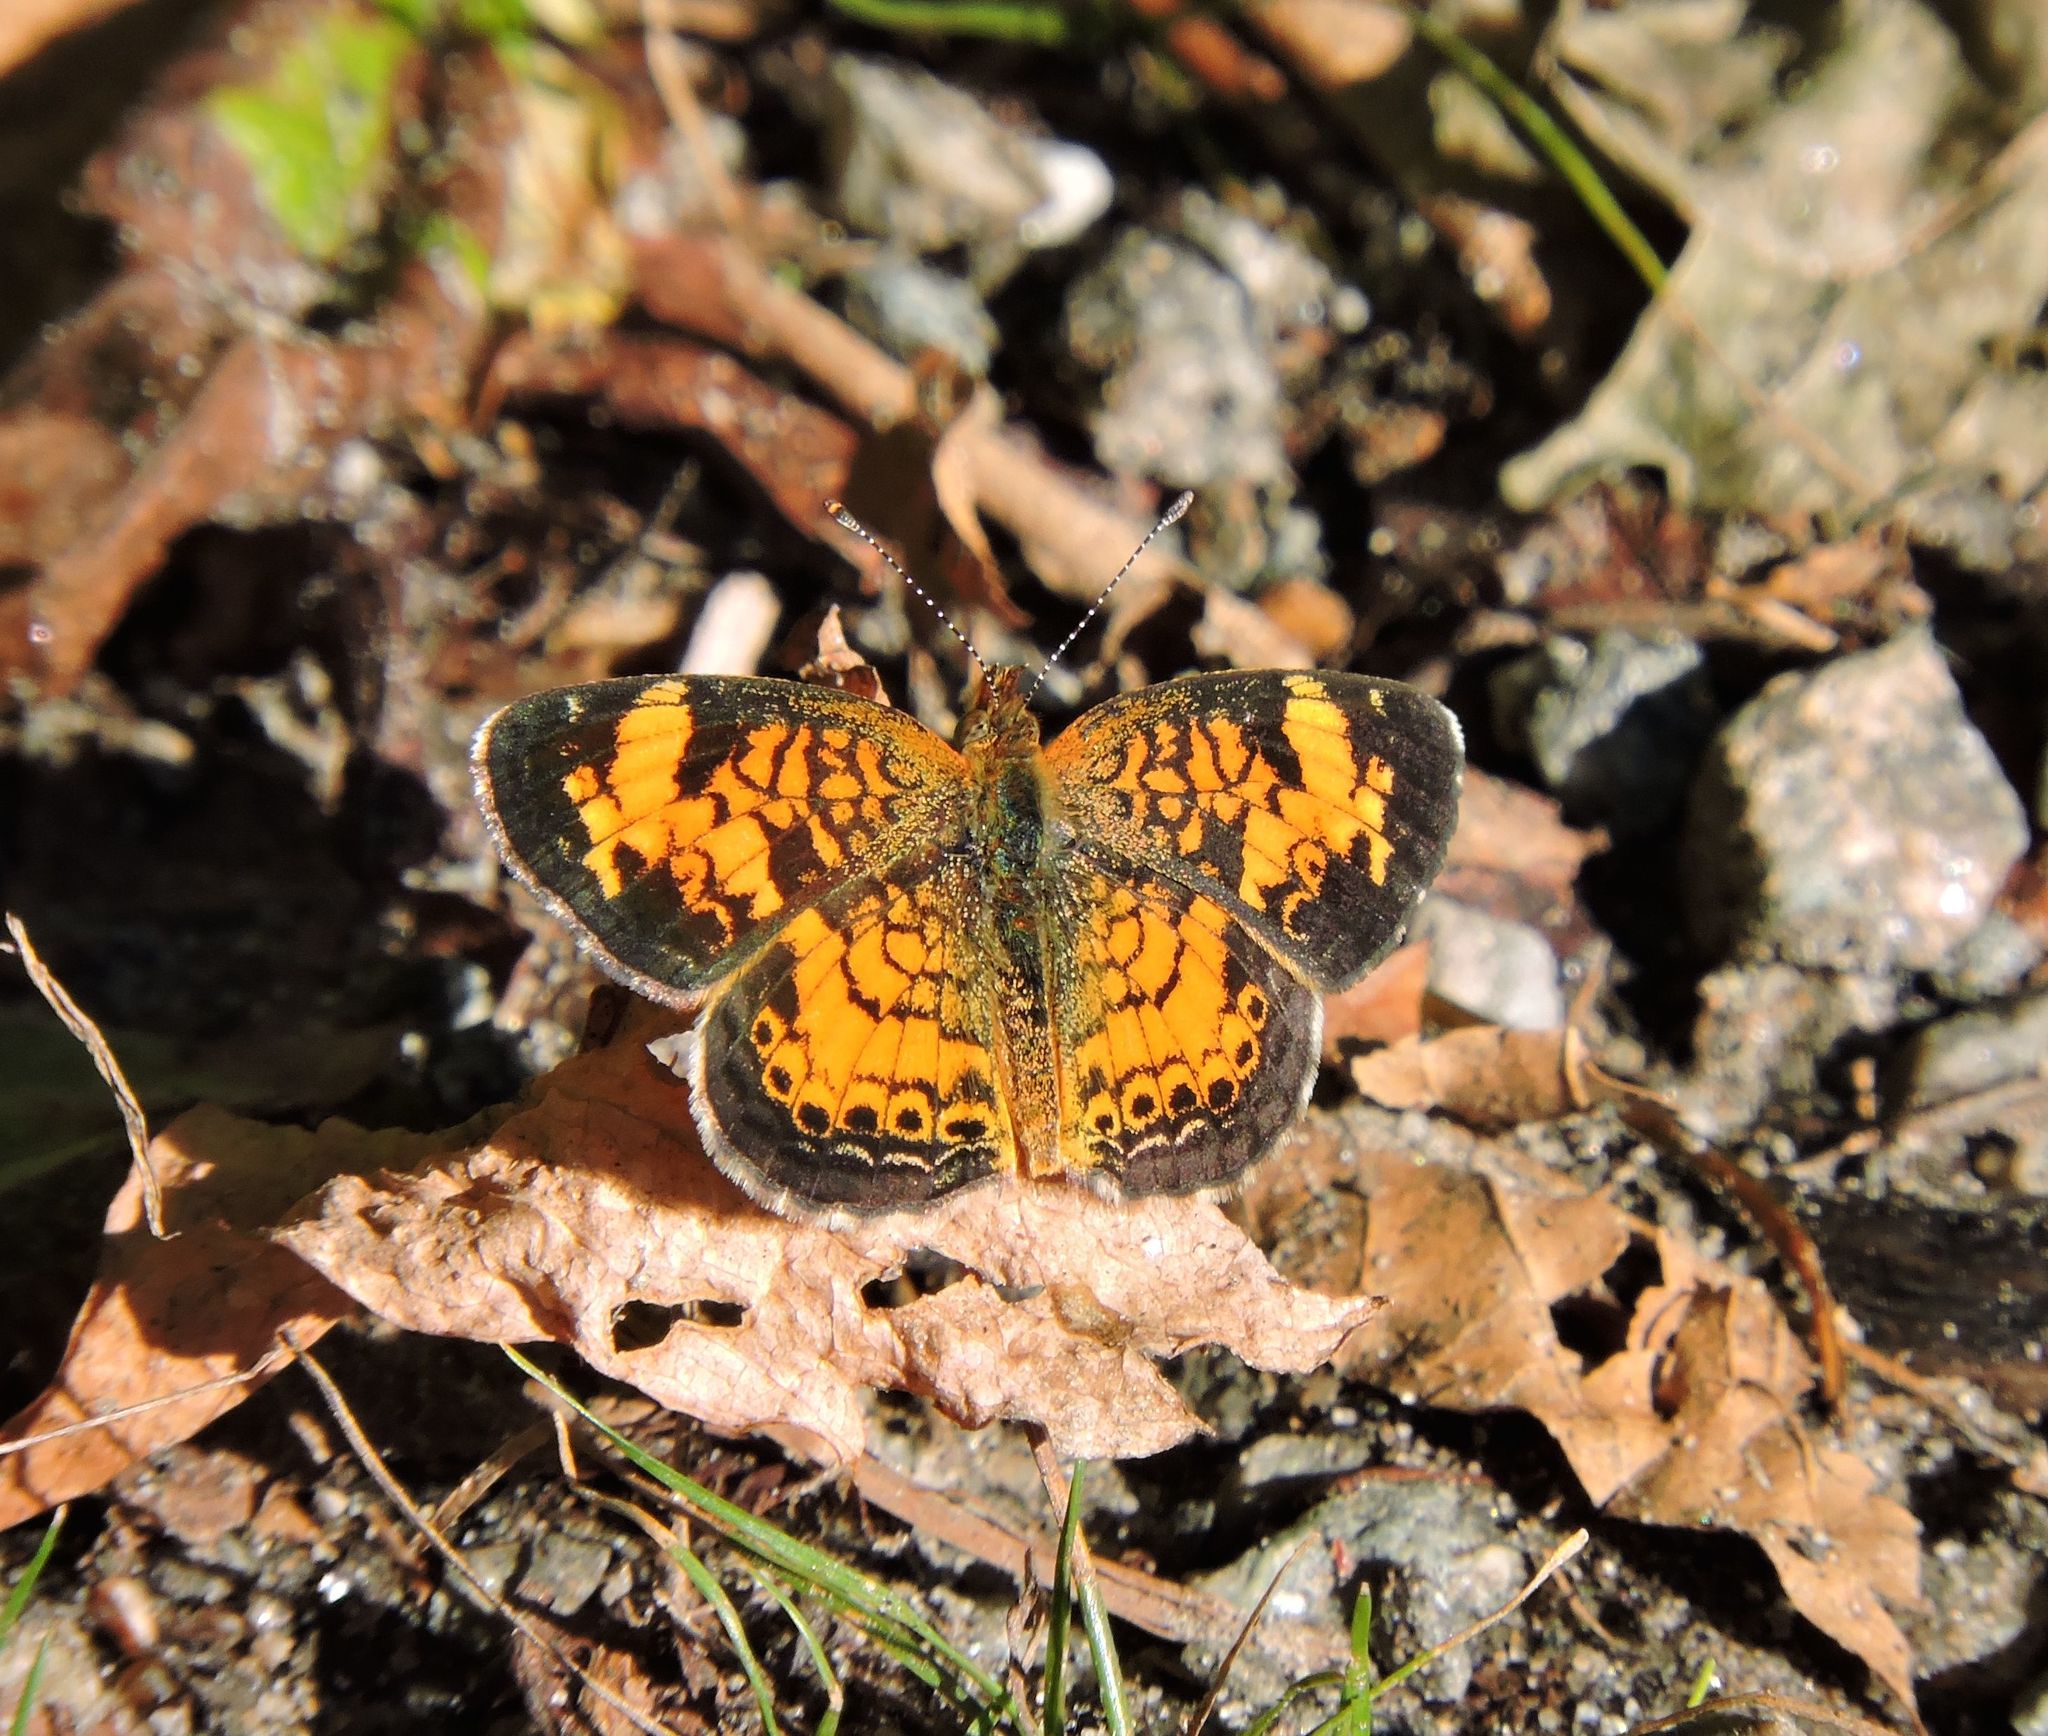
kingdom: Animalia
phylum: Arthropoda
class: Insecta
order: Lepidoptera
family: Nymphalidae
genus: Phyciodes
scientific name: Phyciodes tharos
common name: Pearl crescent
